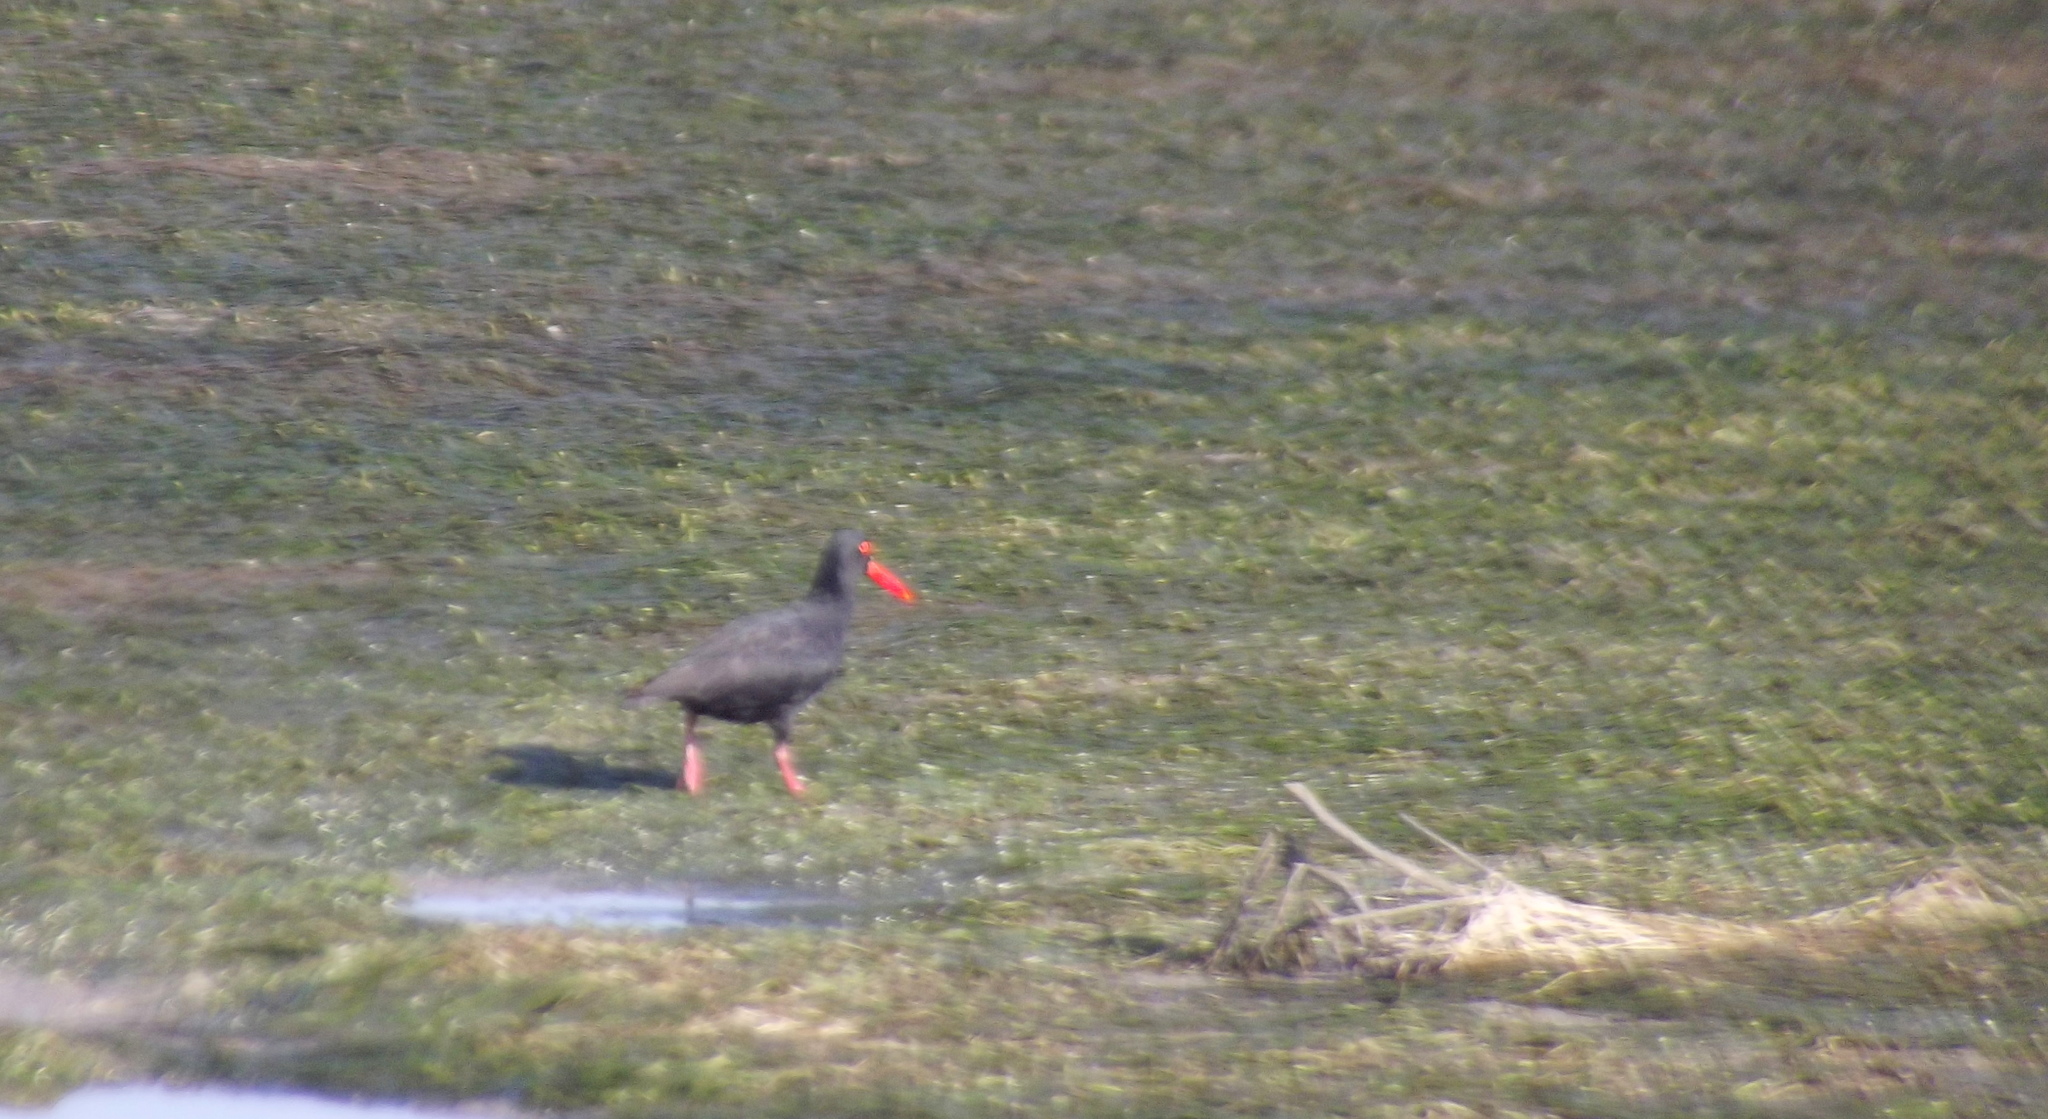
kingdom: Animalia
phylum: Chordata
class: Aves
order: Charadriiformes
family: Haematopodidae
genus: Haematopus
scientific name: Haematopus moquini
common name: African oystercatcher
